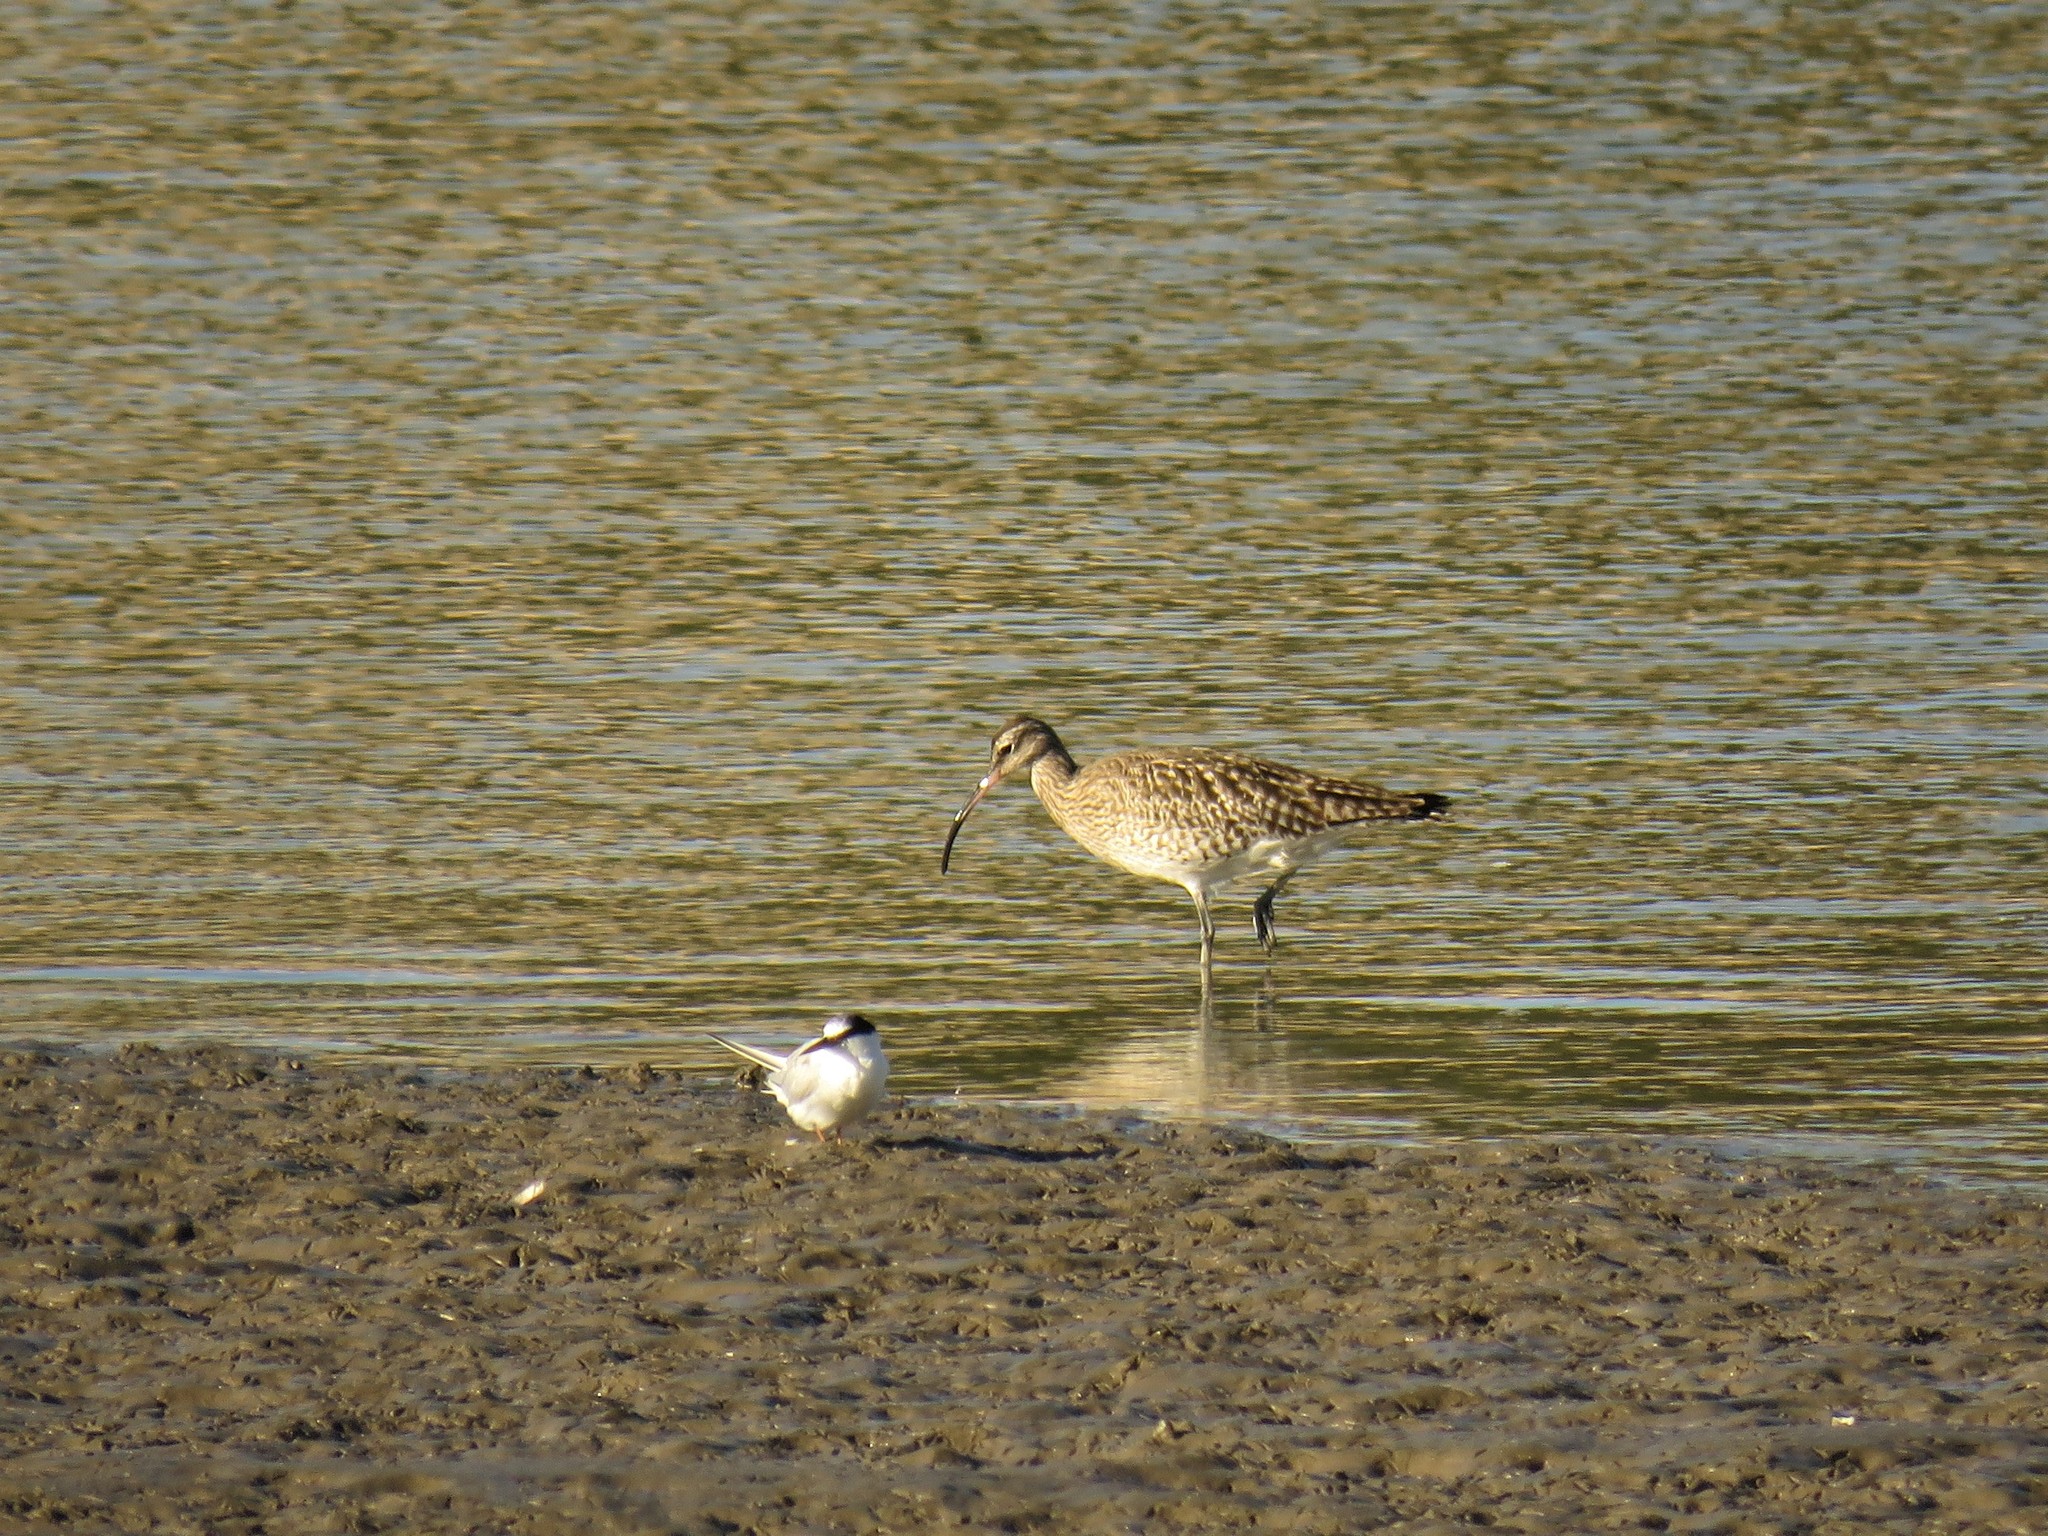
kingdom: Animalia
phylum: Chordata
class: Aves
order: Charadriiformes
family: Scolopacidae
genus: Numenius
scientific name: Numenius phaeopus
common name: Whimbrel
